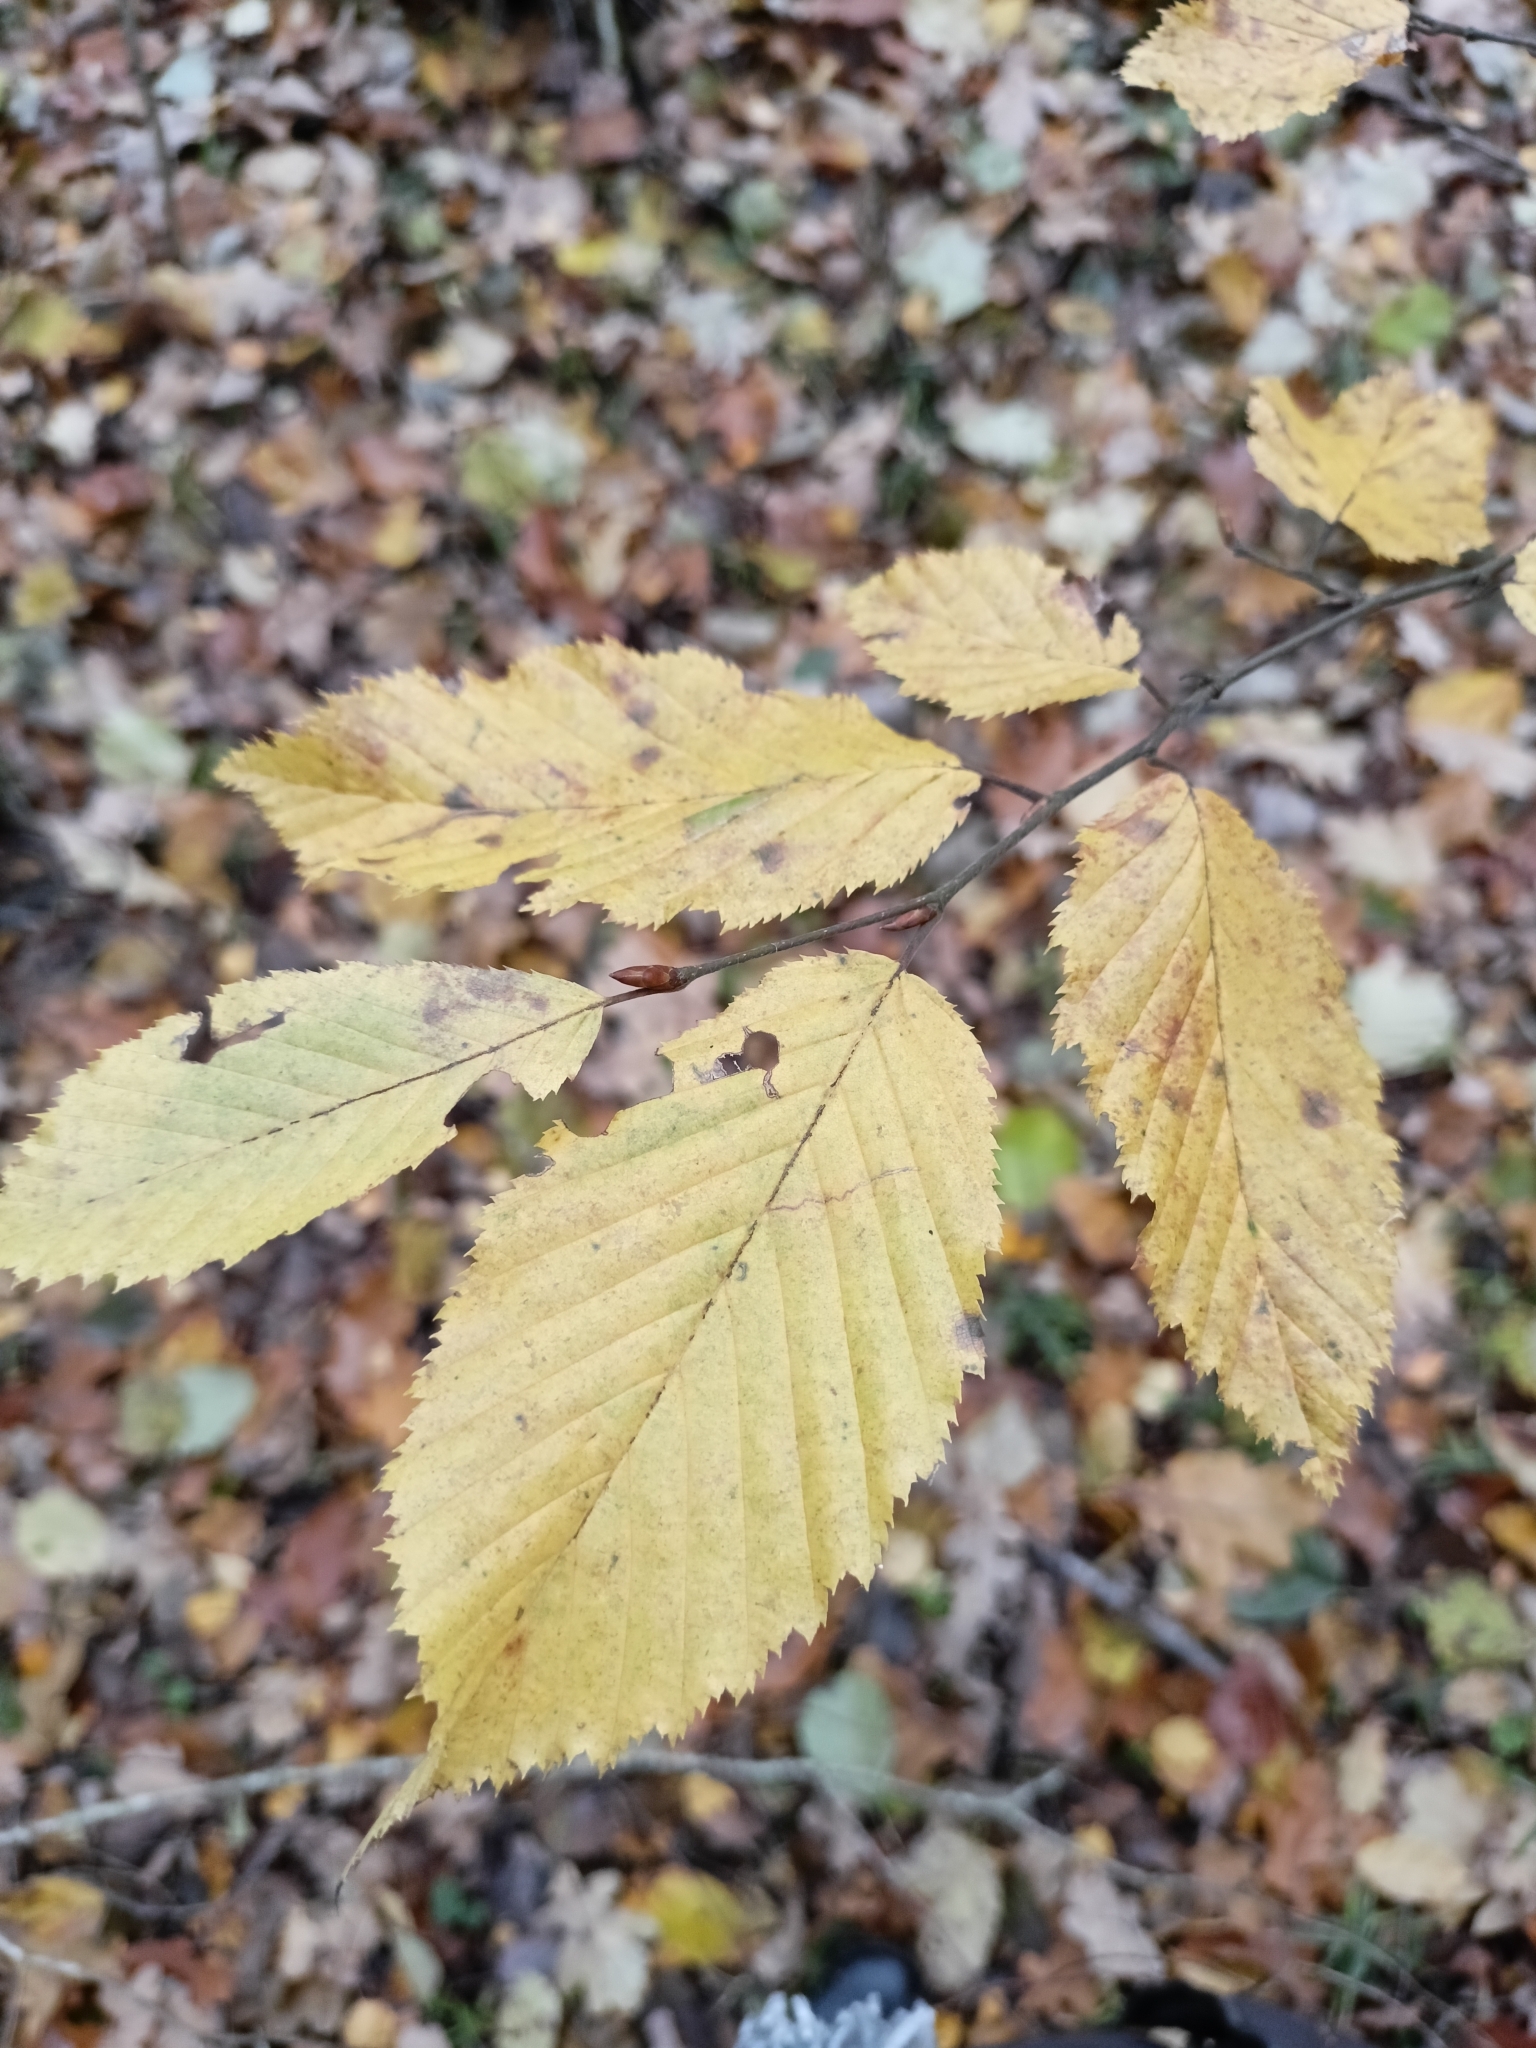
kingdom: Plantae
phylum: Tracheophyta
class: Magnoliopsida
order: Fagales
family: Betulaceae
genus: Carpinus
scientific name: Carpinus betulus
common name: Hornbeam
